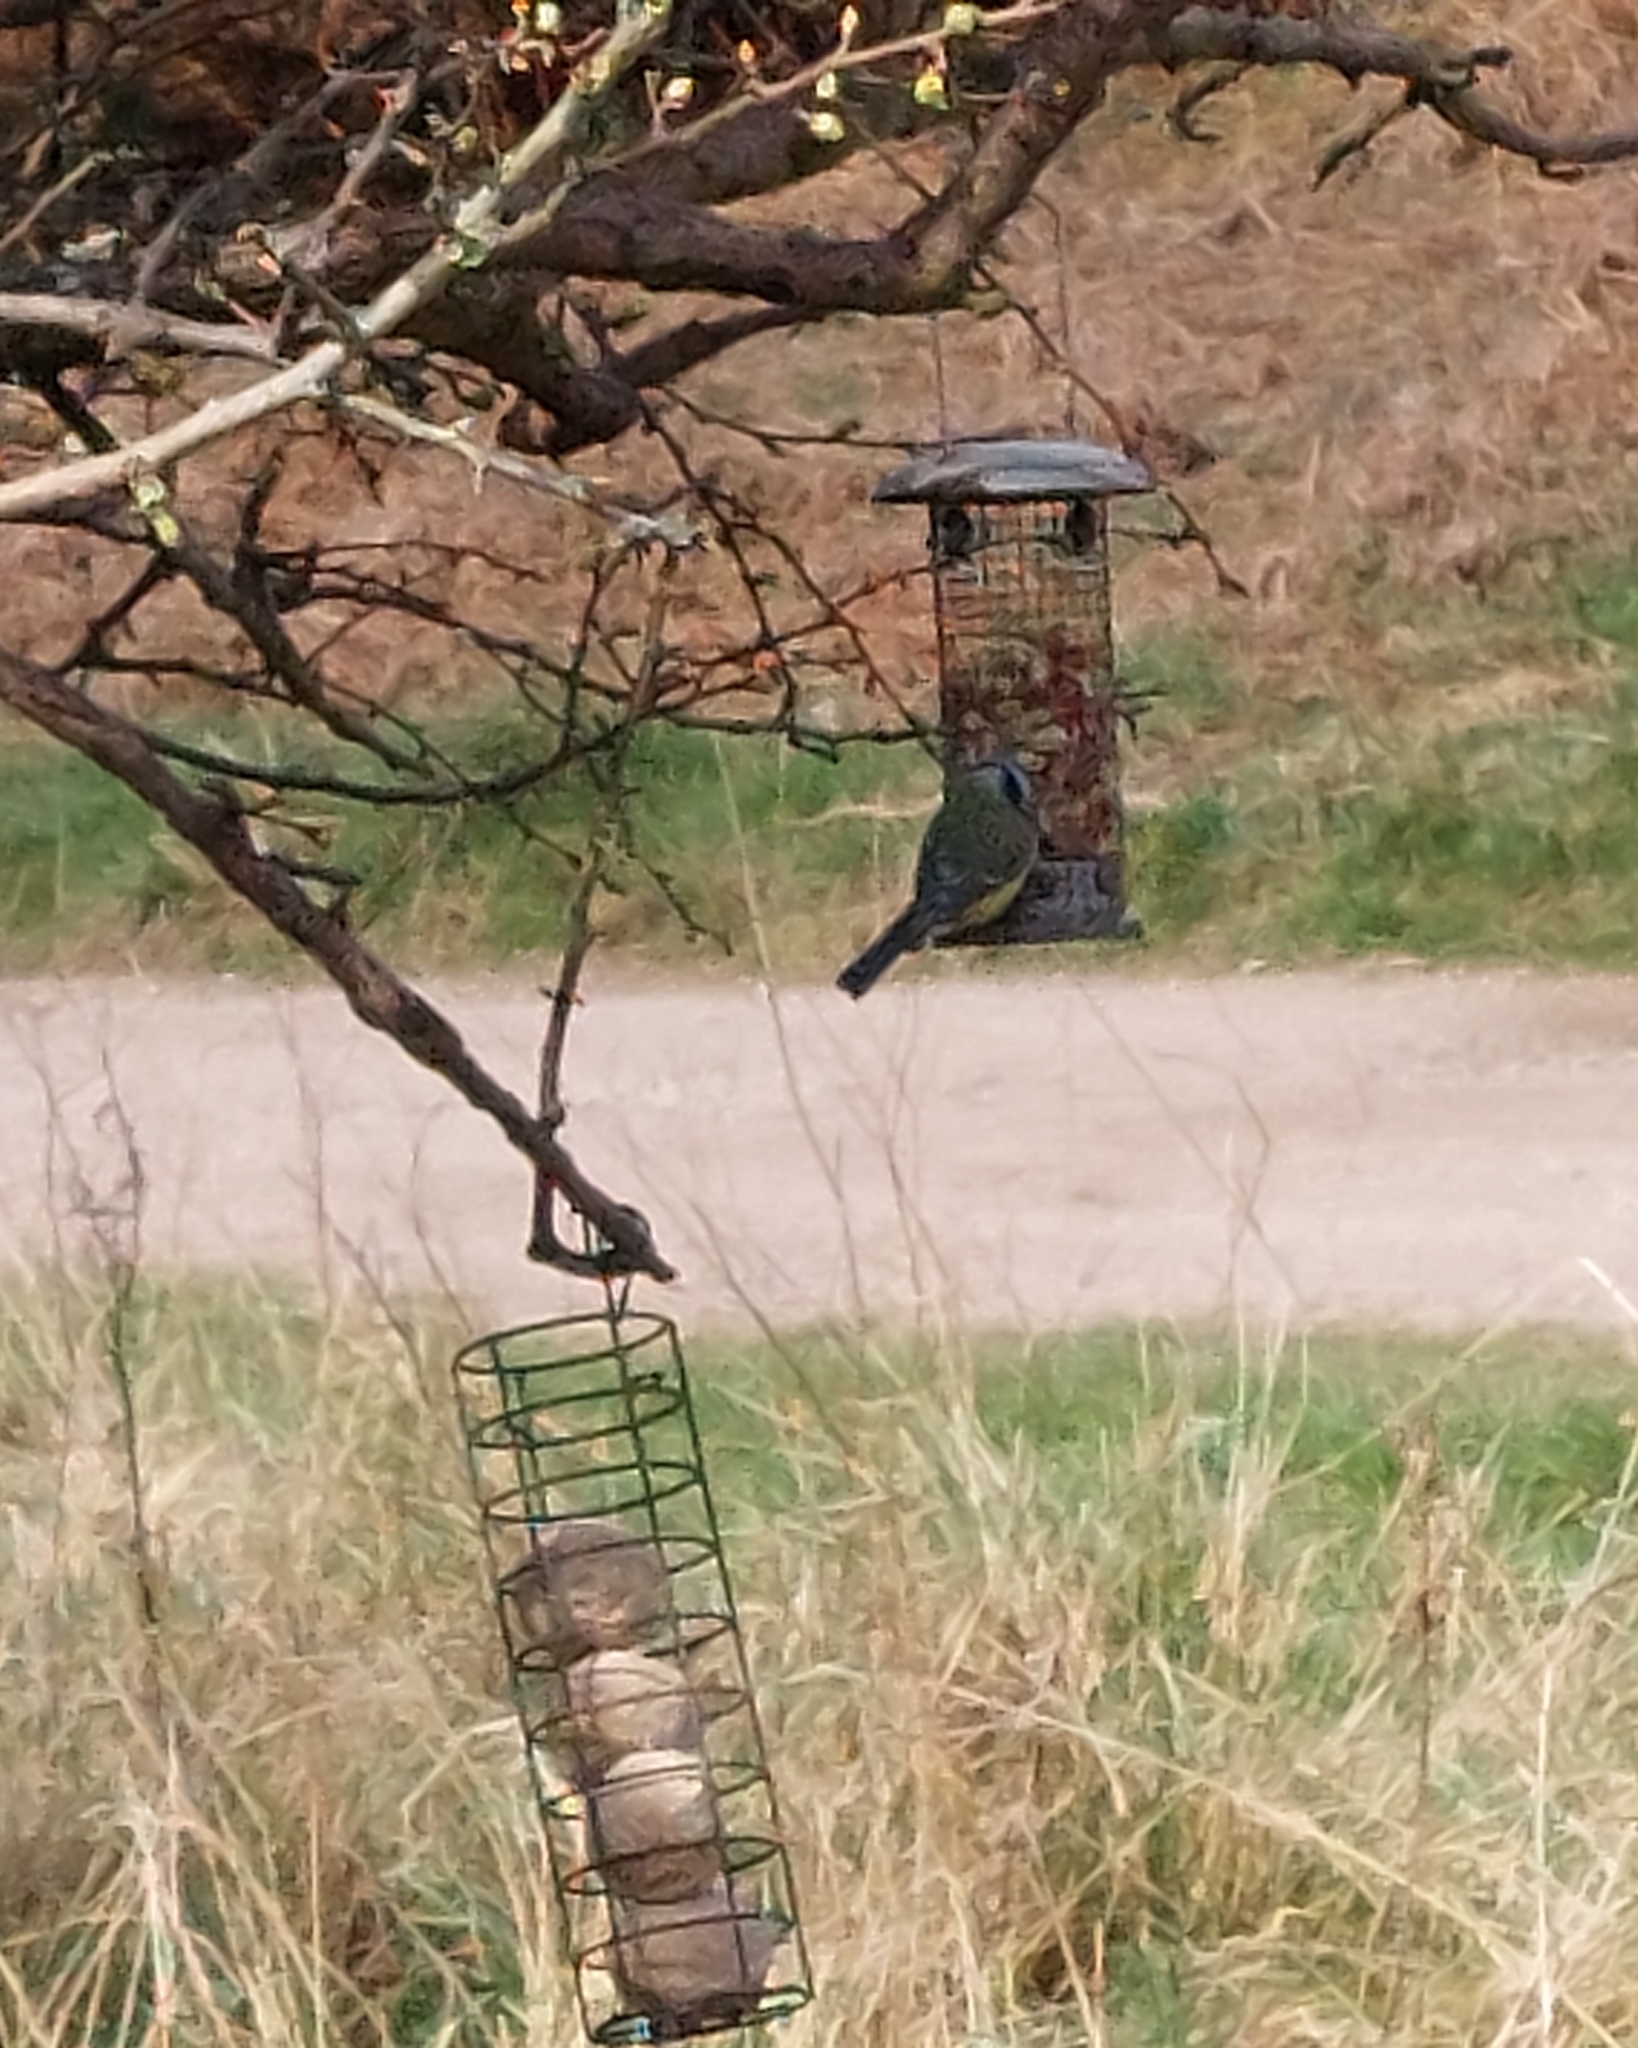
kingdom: Animalia
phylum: Chordata
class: Aves
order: Passeriformes
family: Paridae
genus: Cyanistes
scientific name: Cyanistes caeruleus
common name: Eurasian blue tit
